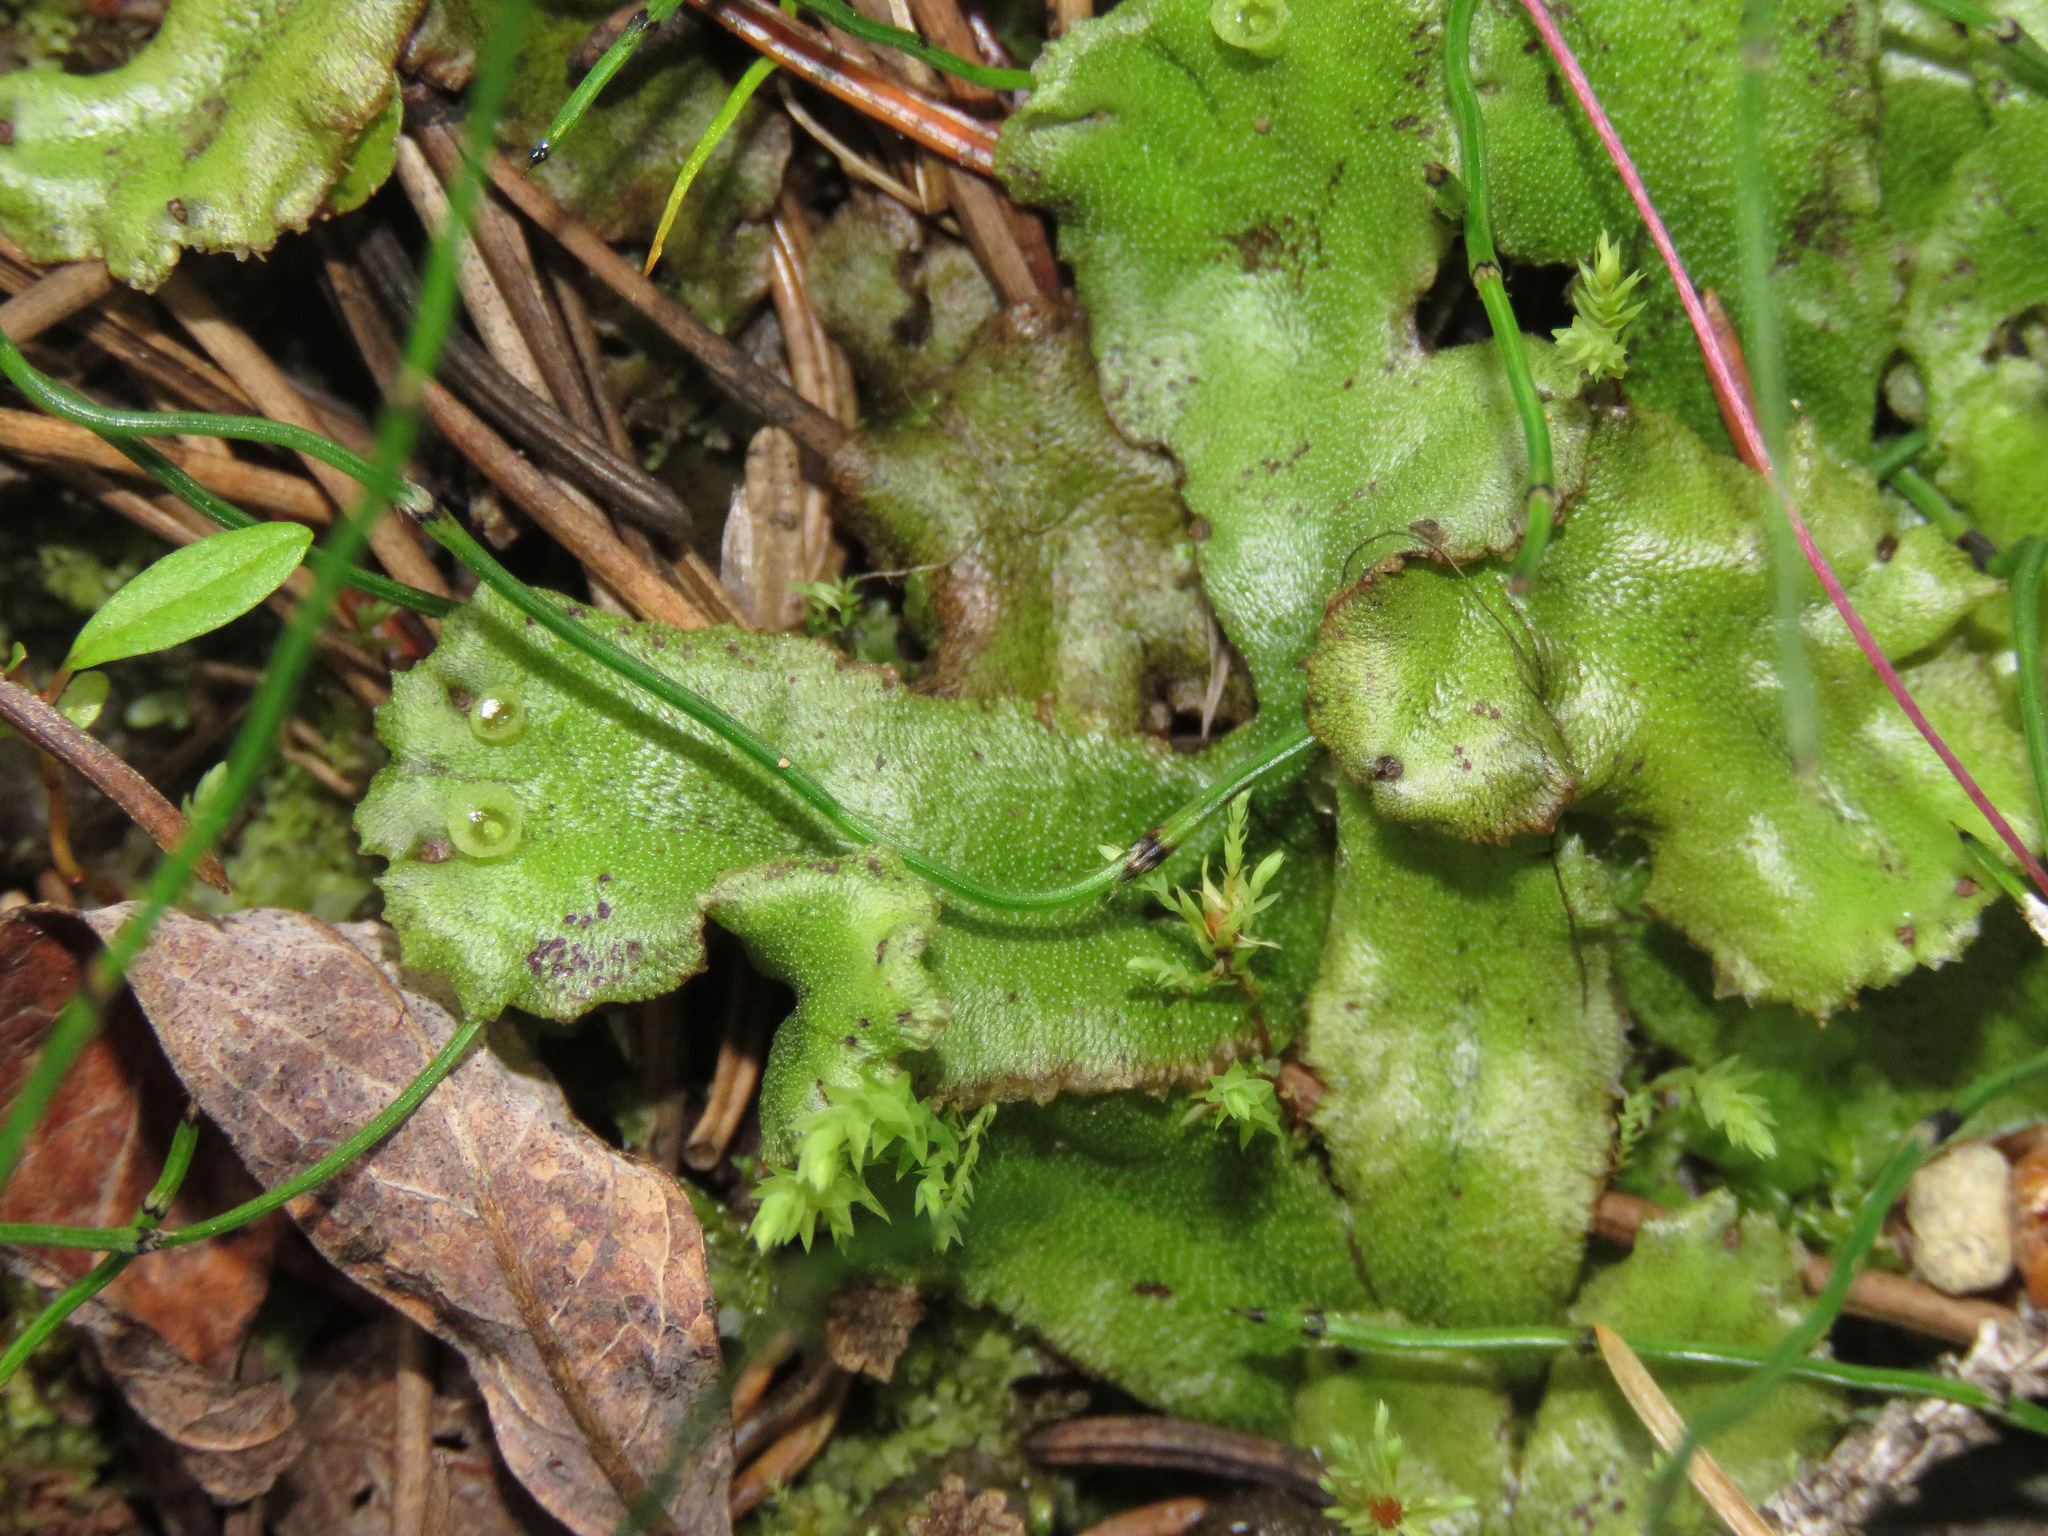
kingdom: Plantae
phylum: Marchantiophyta
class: Marchantiopsida
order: Marchantiales
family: Marchantiaceae
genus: Marchantia
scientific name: Marchantia polymorpha
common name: Common liverwort
